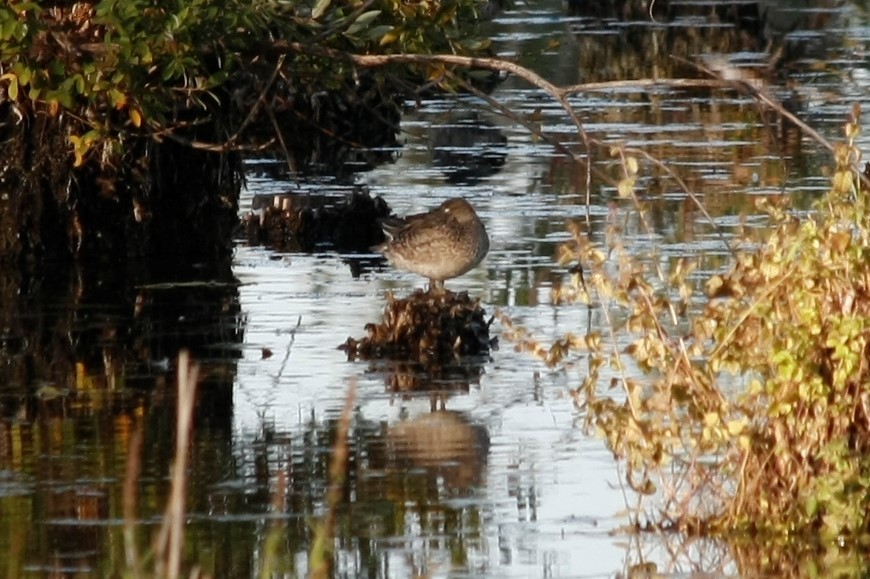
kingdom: Animalia
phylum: Chordata
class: Aves
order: Anseriformes
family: Anatidae
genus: Anas
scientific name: Anas crecca
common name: Eurasian teal
